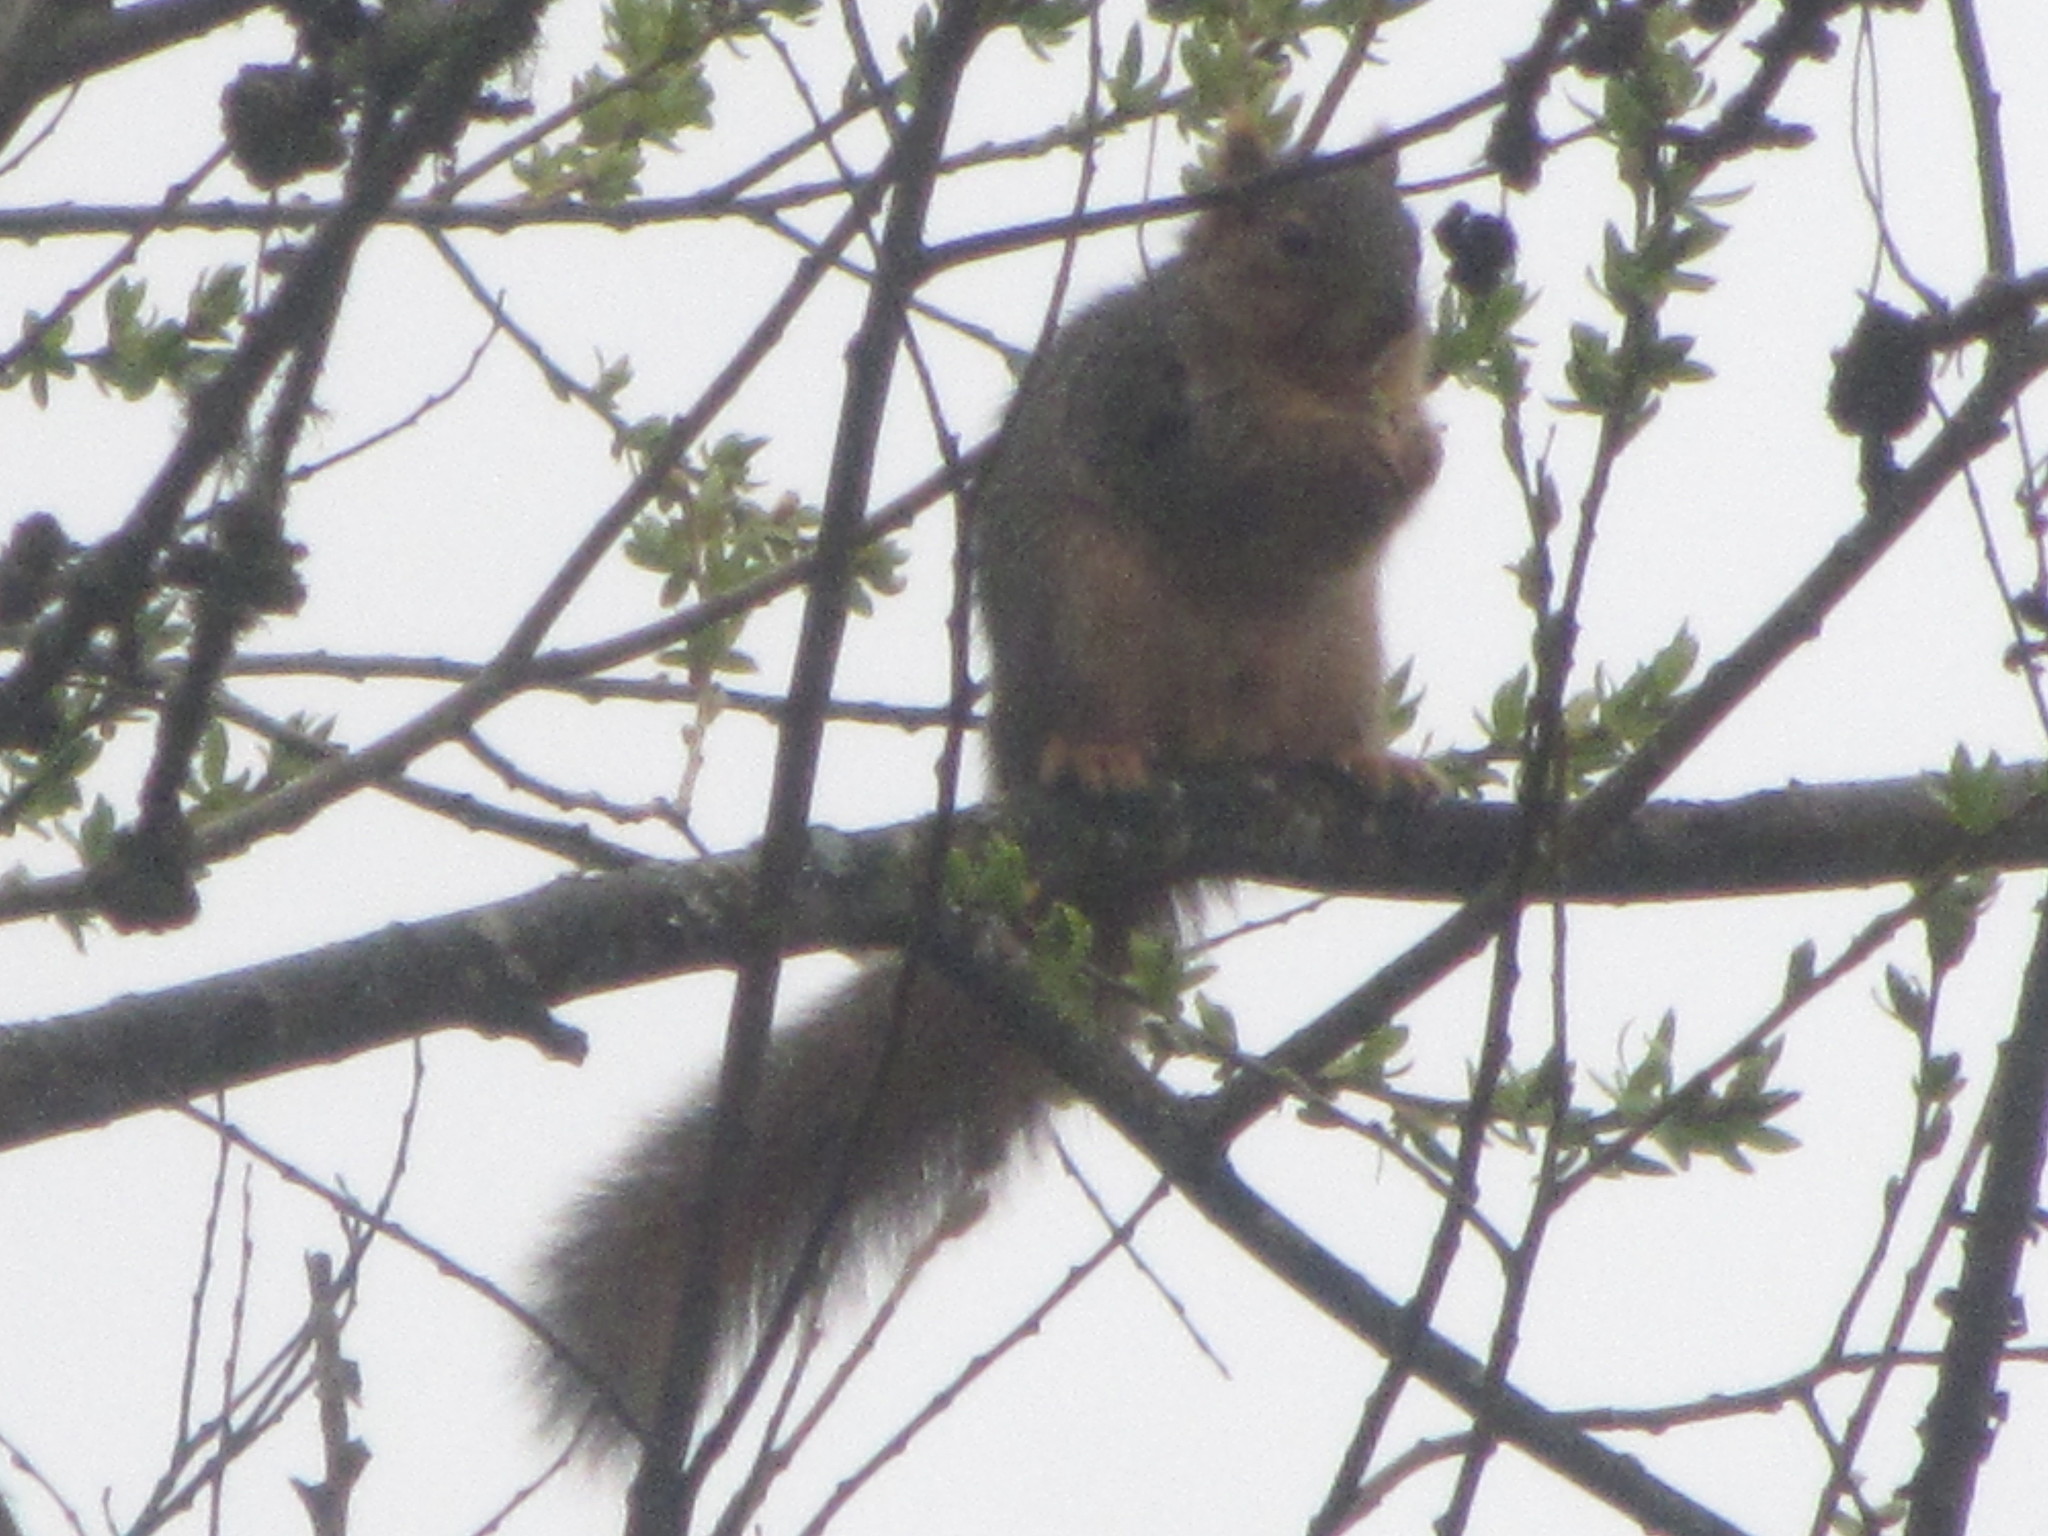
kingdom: Animalia
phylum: Chordata
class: Mammalia
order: Rodentia
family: Sciuridae
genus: Sciurus
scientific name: Sciurus niger
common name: Fox squirrel
